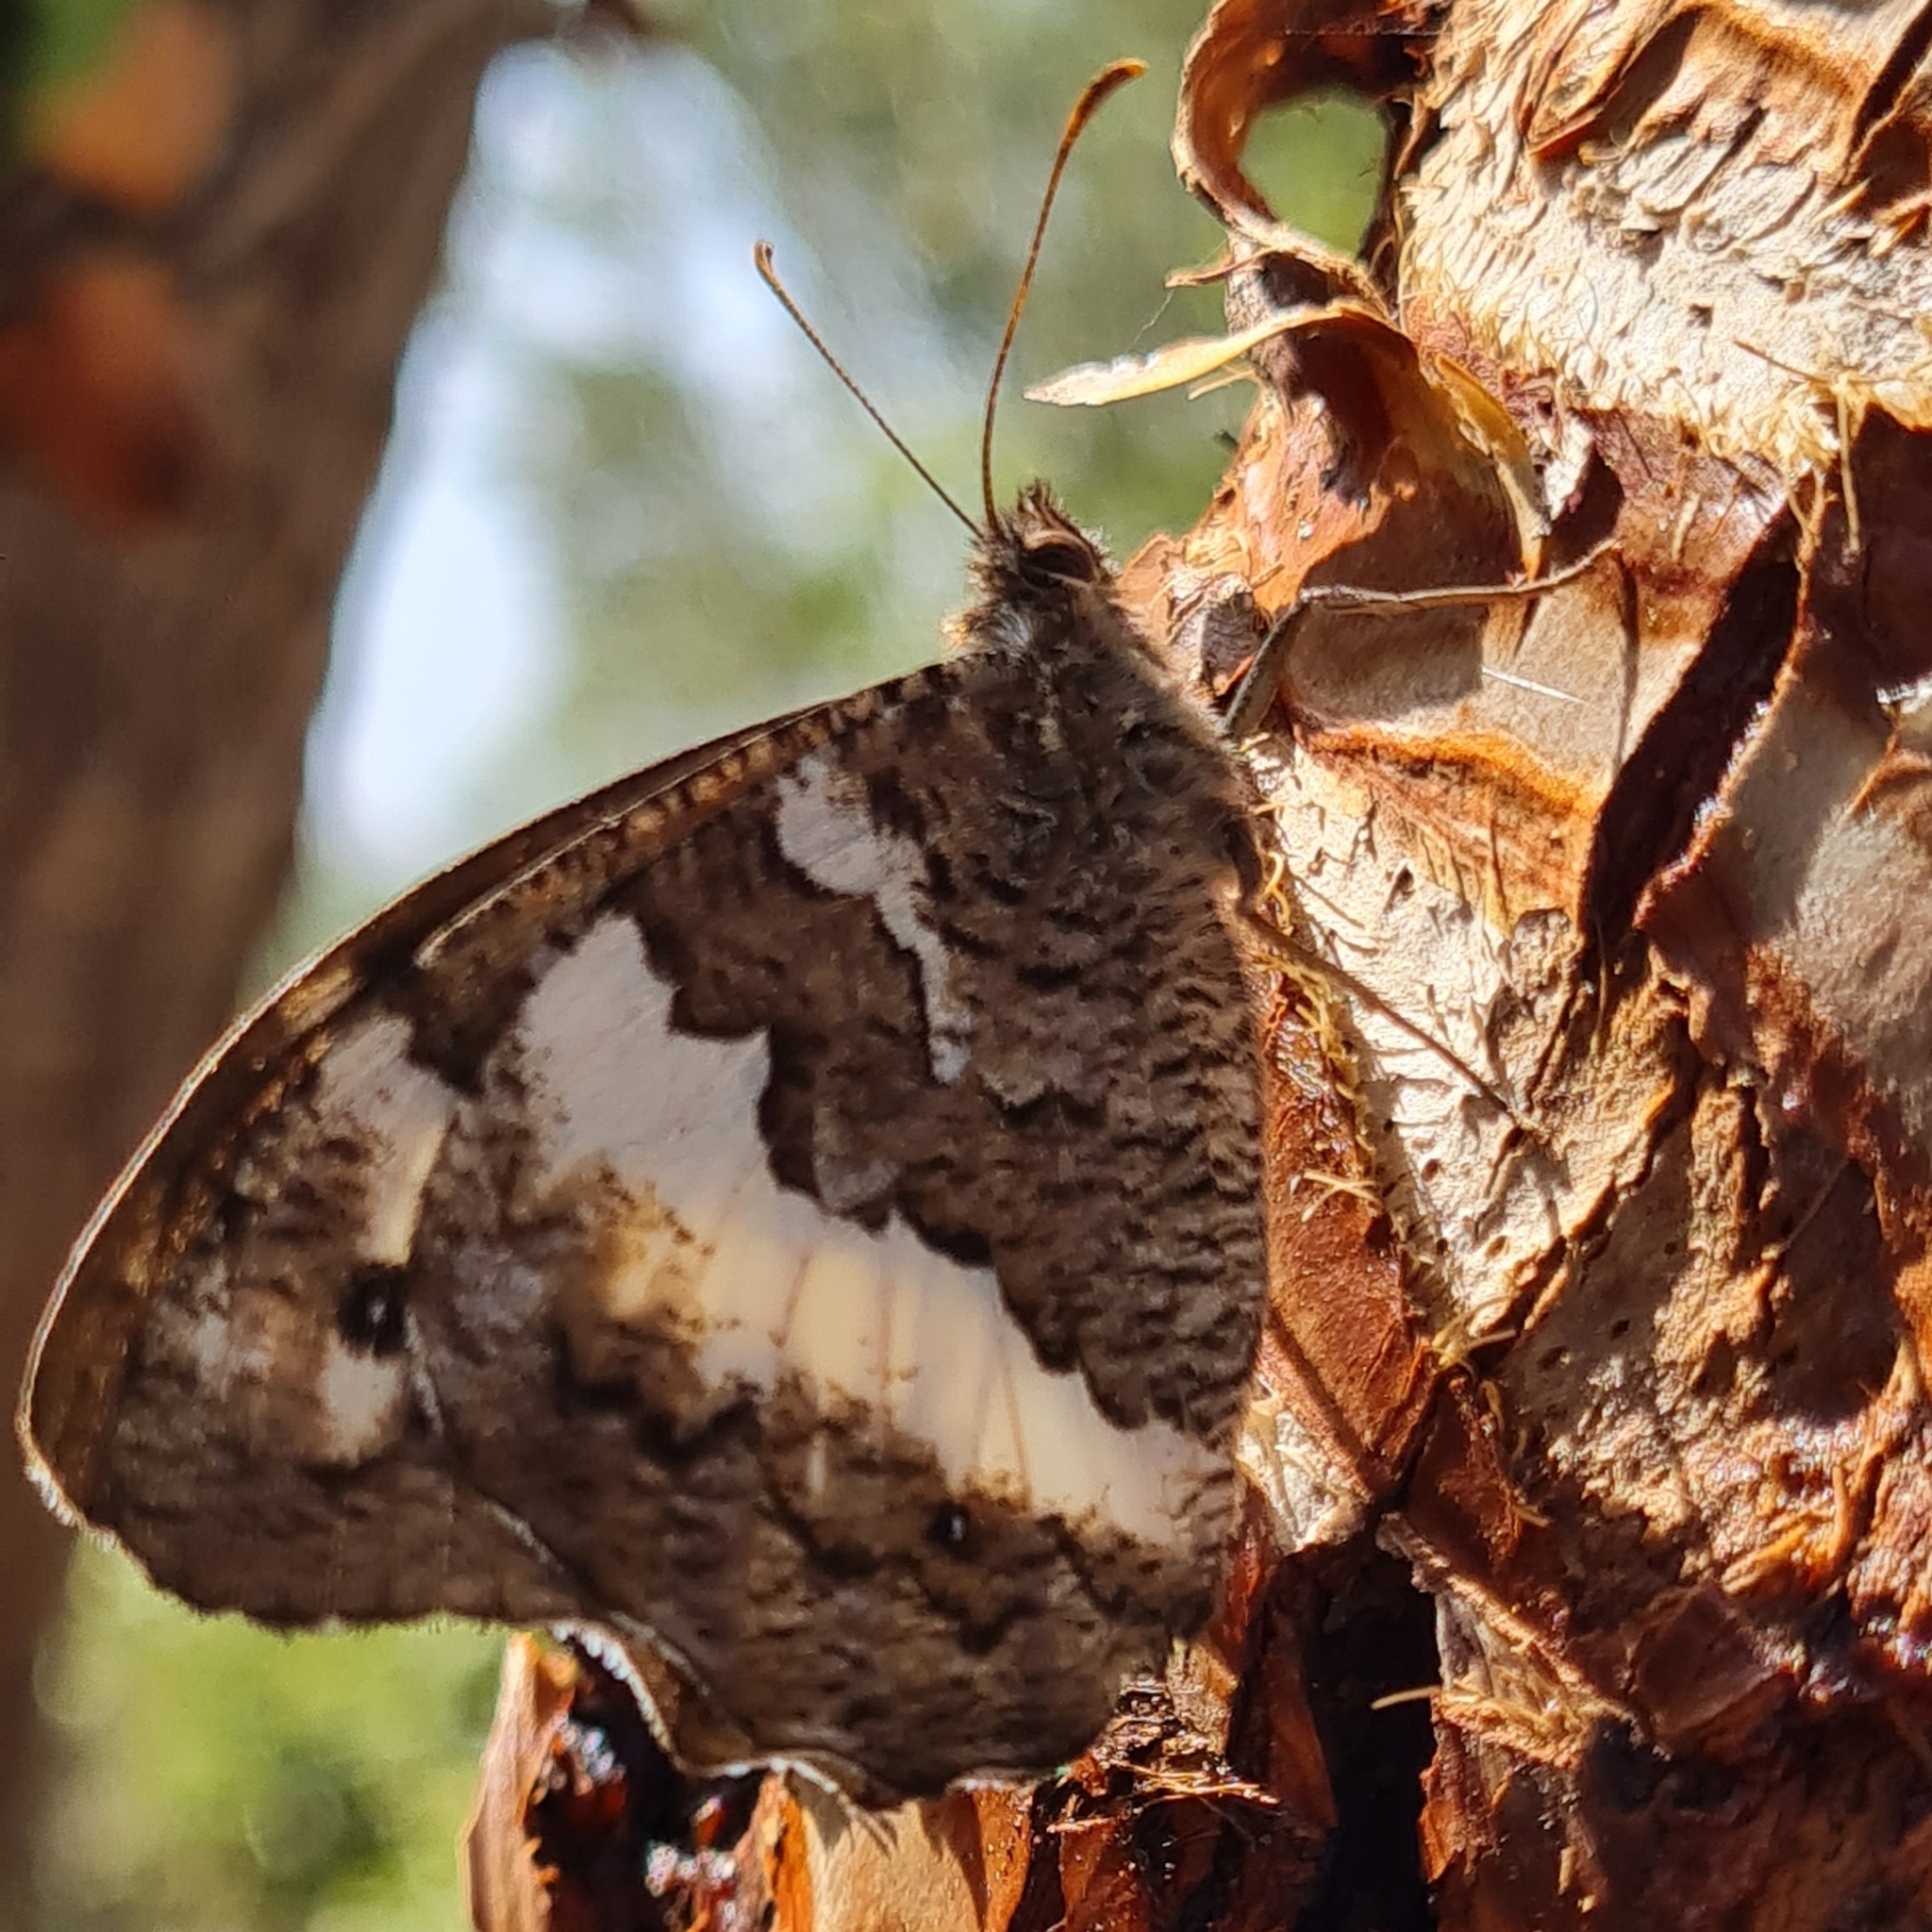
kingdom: Animalia
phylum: Arthropoda
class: Insecta
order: Lepidoptera
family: Lycaenidae
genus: Loweia
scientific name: Loweia tityrus
